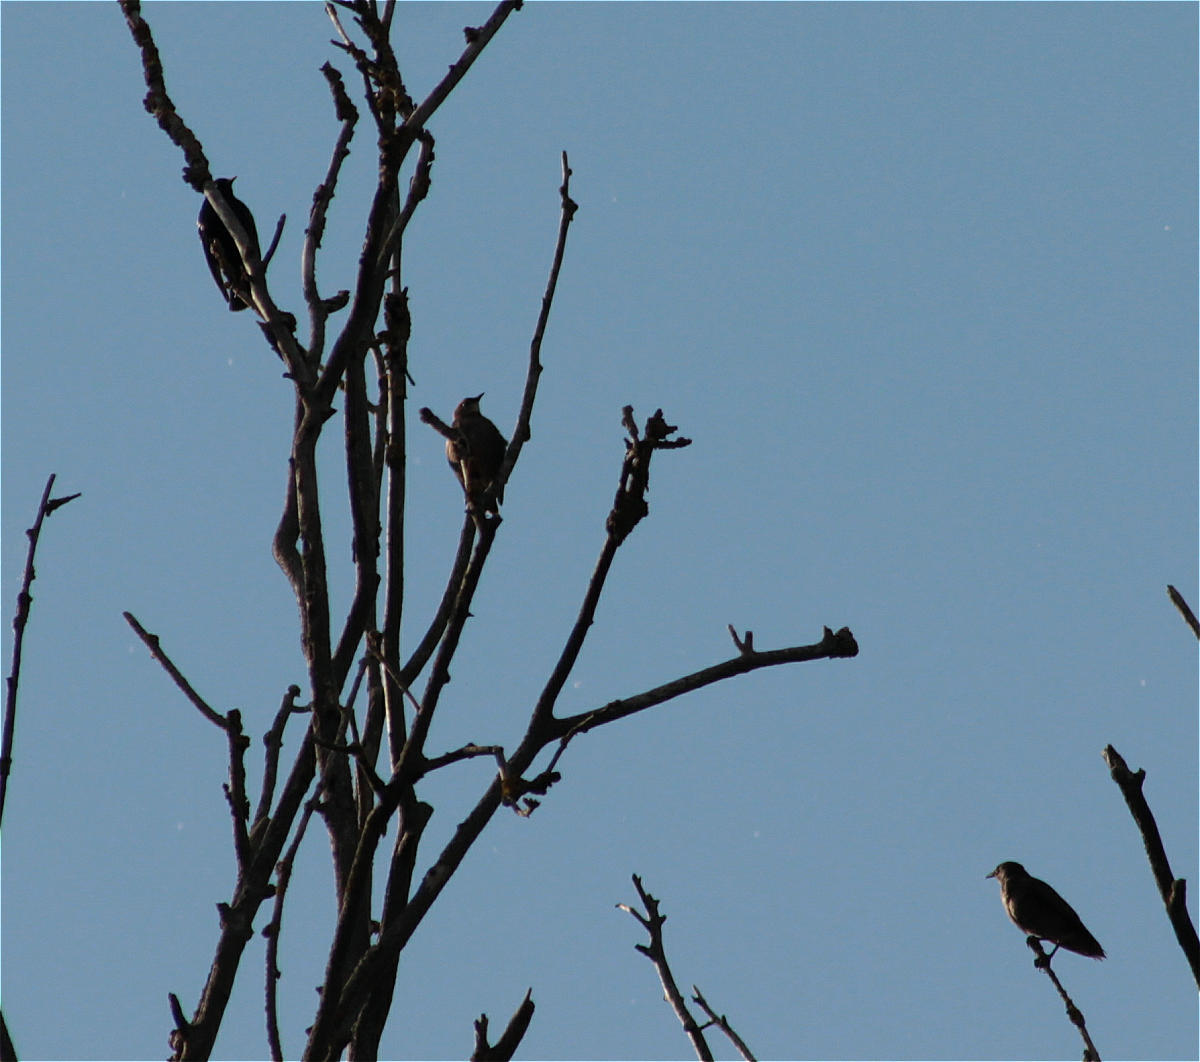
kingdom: Animalia
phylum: Chordata
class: Aves
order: Passeriformes
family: Sturnidae
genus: Sturnus
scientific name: Sturnus vulgaris
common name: Common starling
